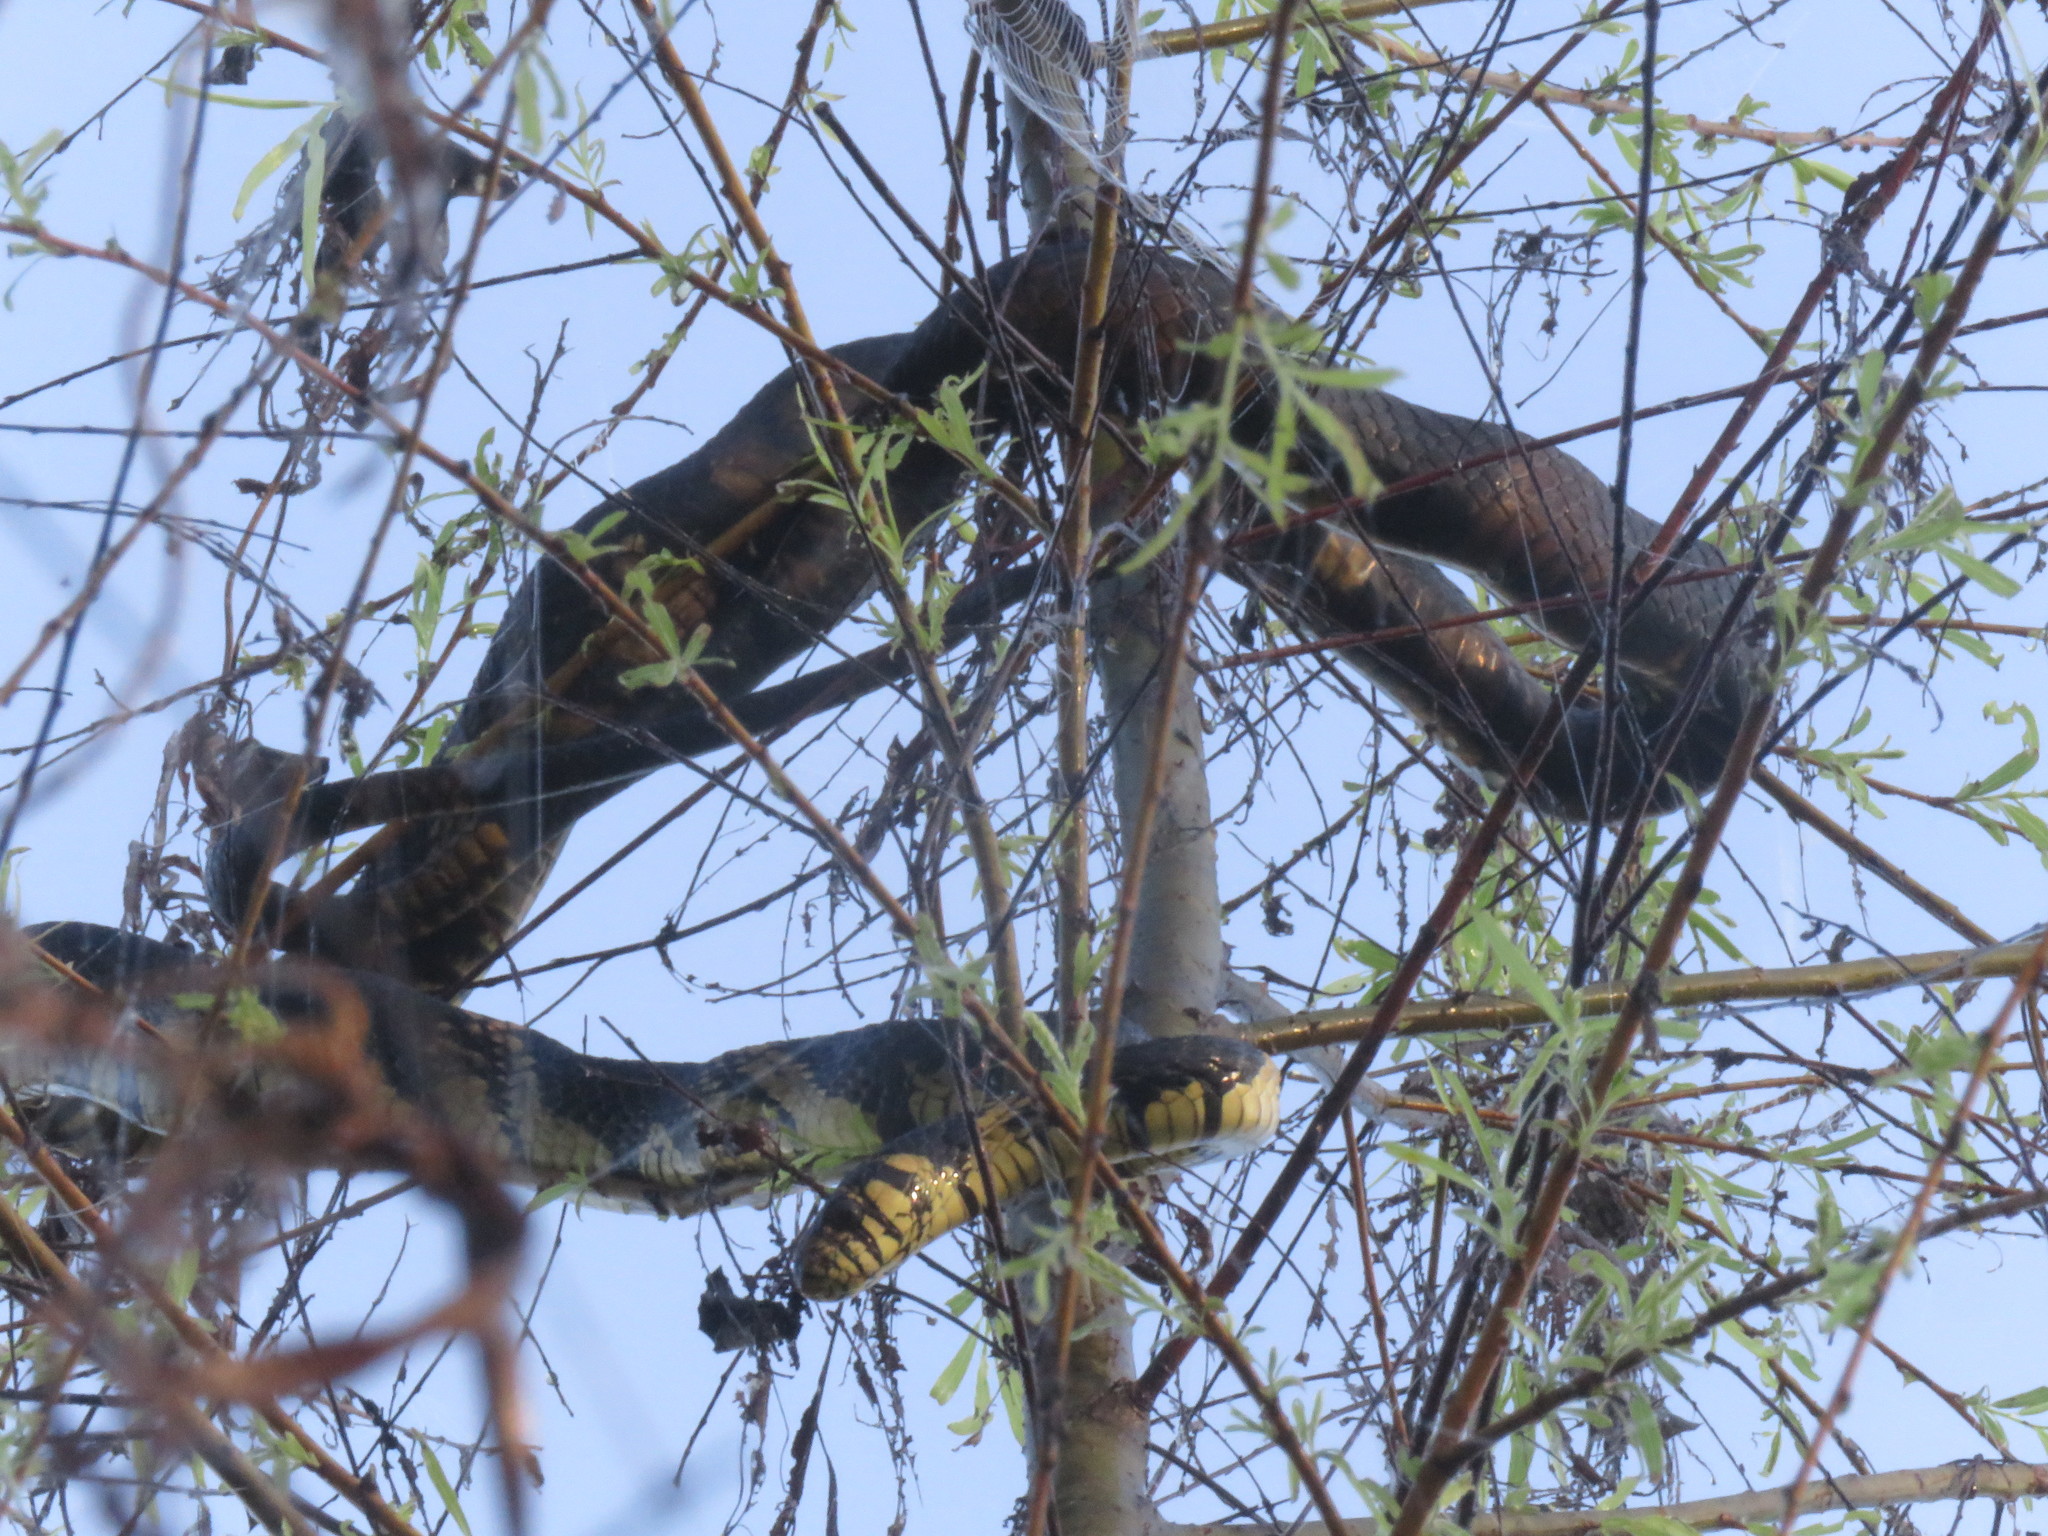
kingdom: Animalia
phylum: Chordata
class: Squamata
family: Colubridae
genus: Spilotes
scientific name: Spilotes pullatus
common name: Chicken snake
